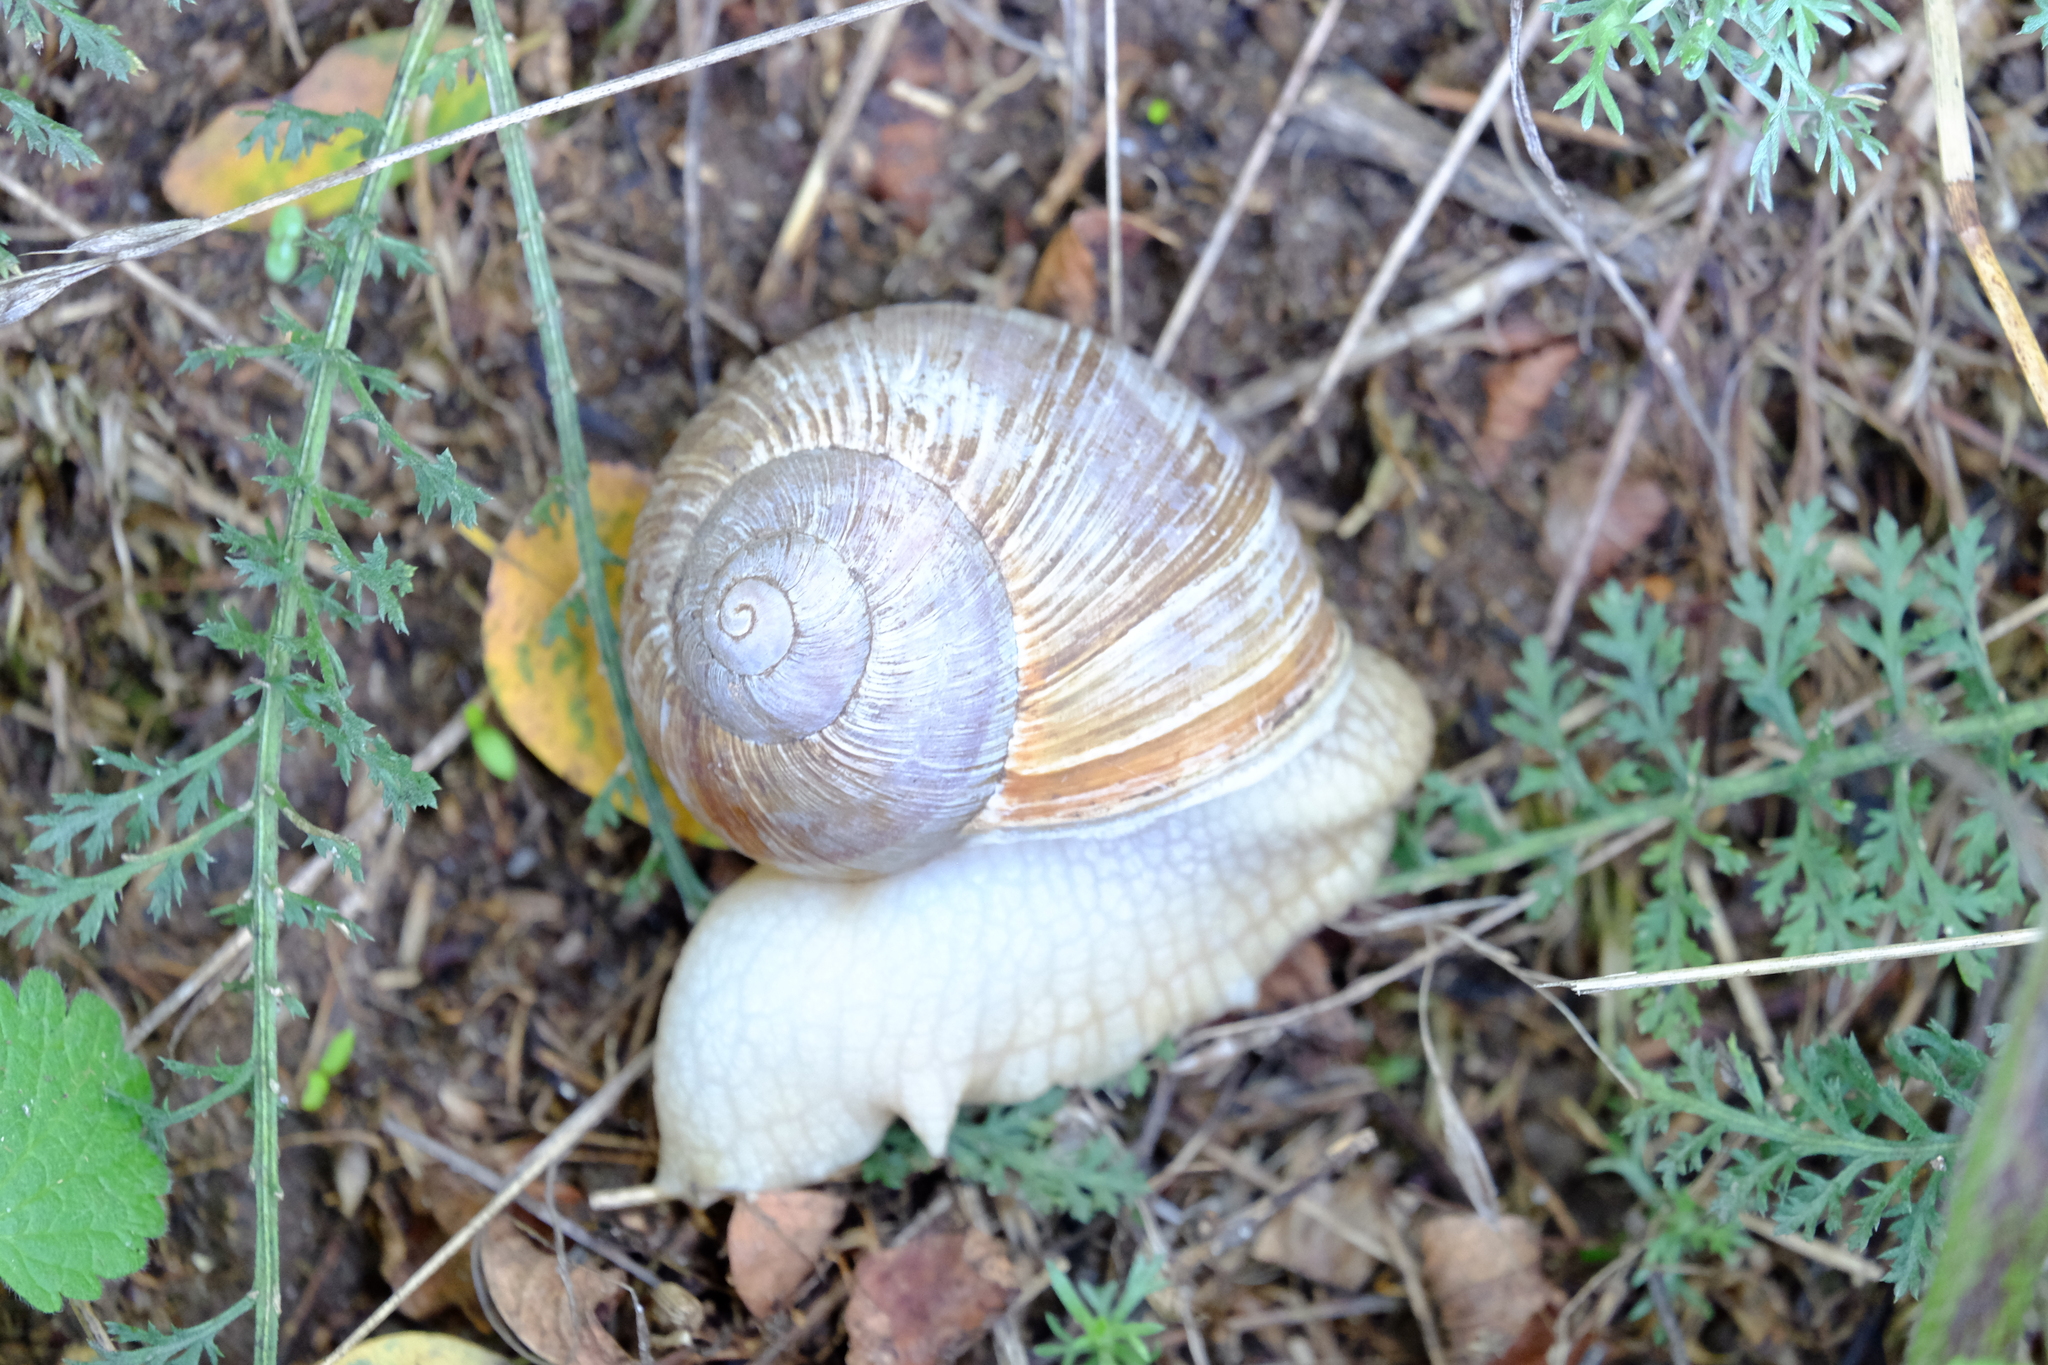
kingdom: Animalia
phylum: Mollusca
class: Gastropoda
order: Stylommatophora
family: Helicidae
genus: Helix
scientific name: Helix pomatia
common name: Roman snail
